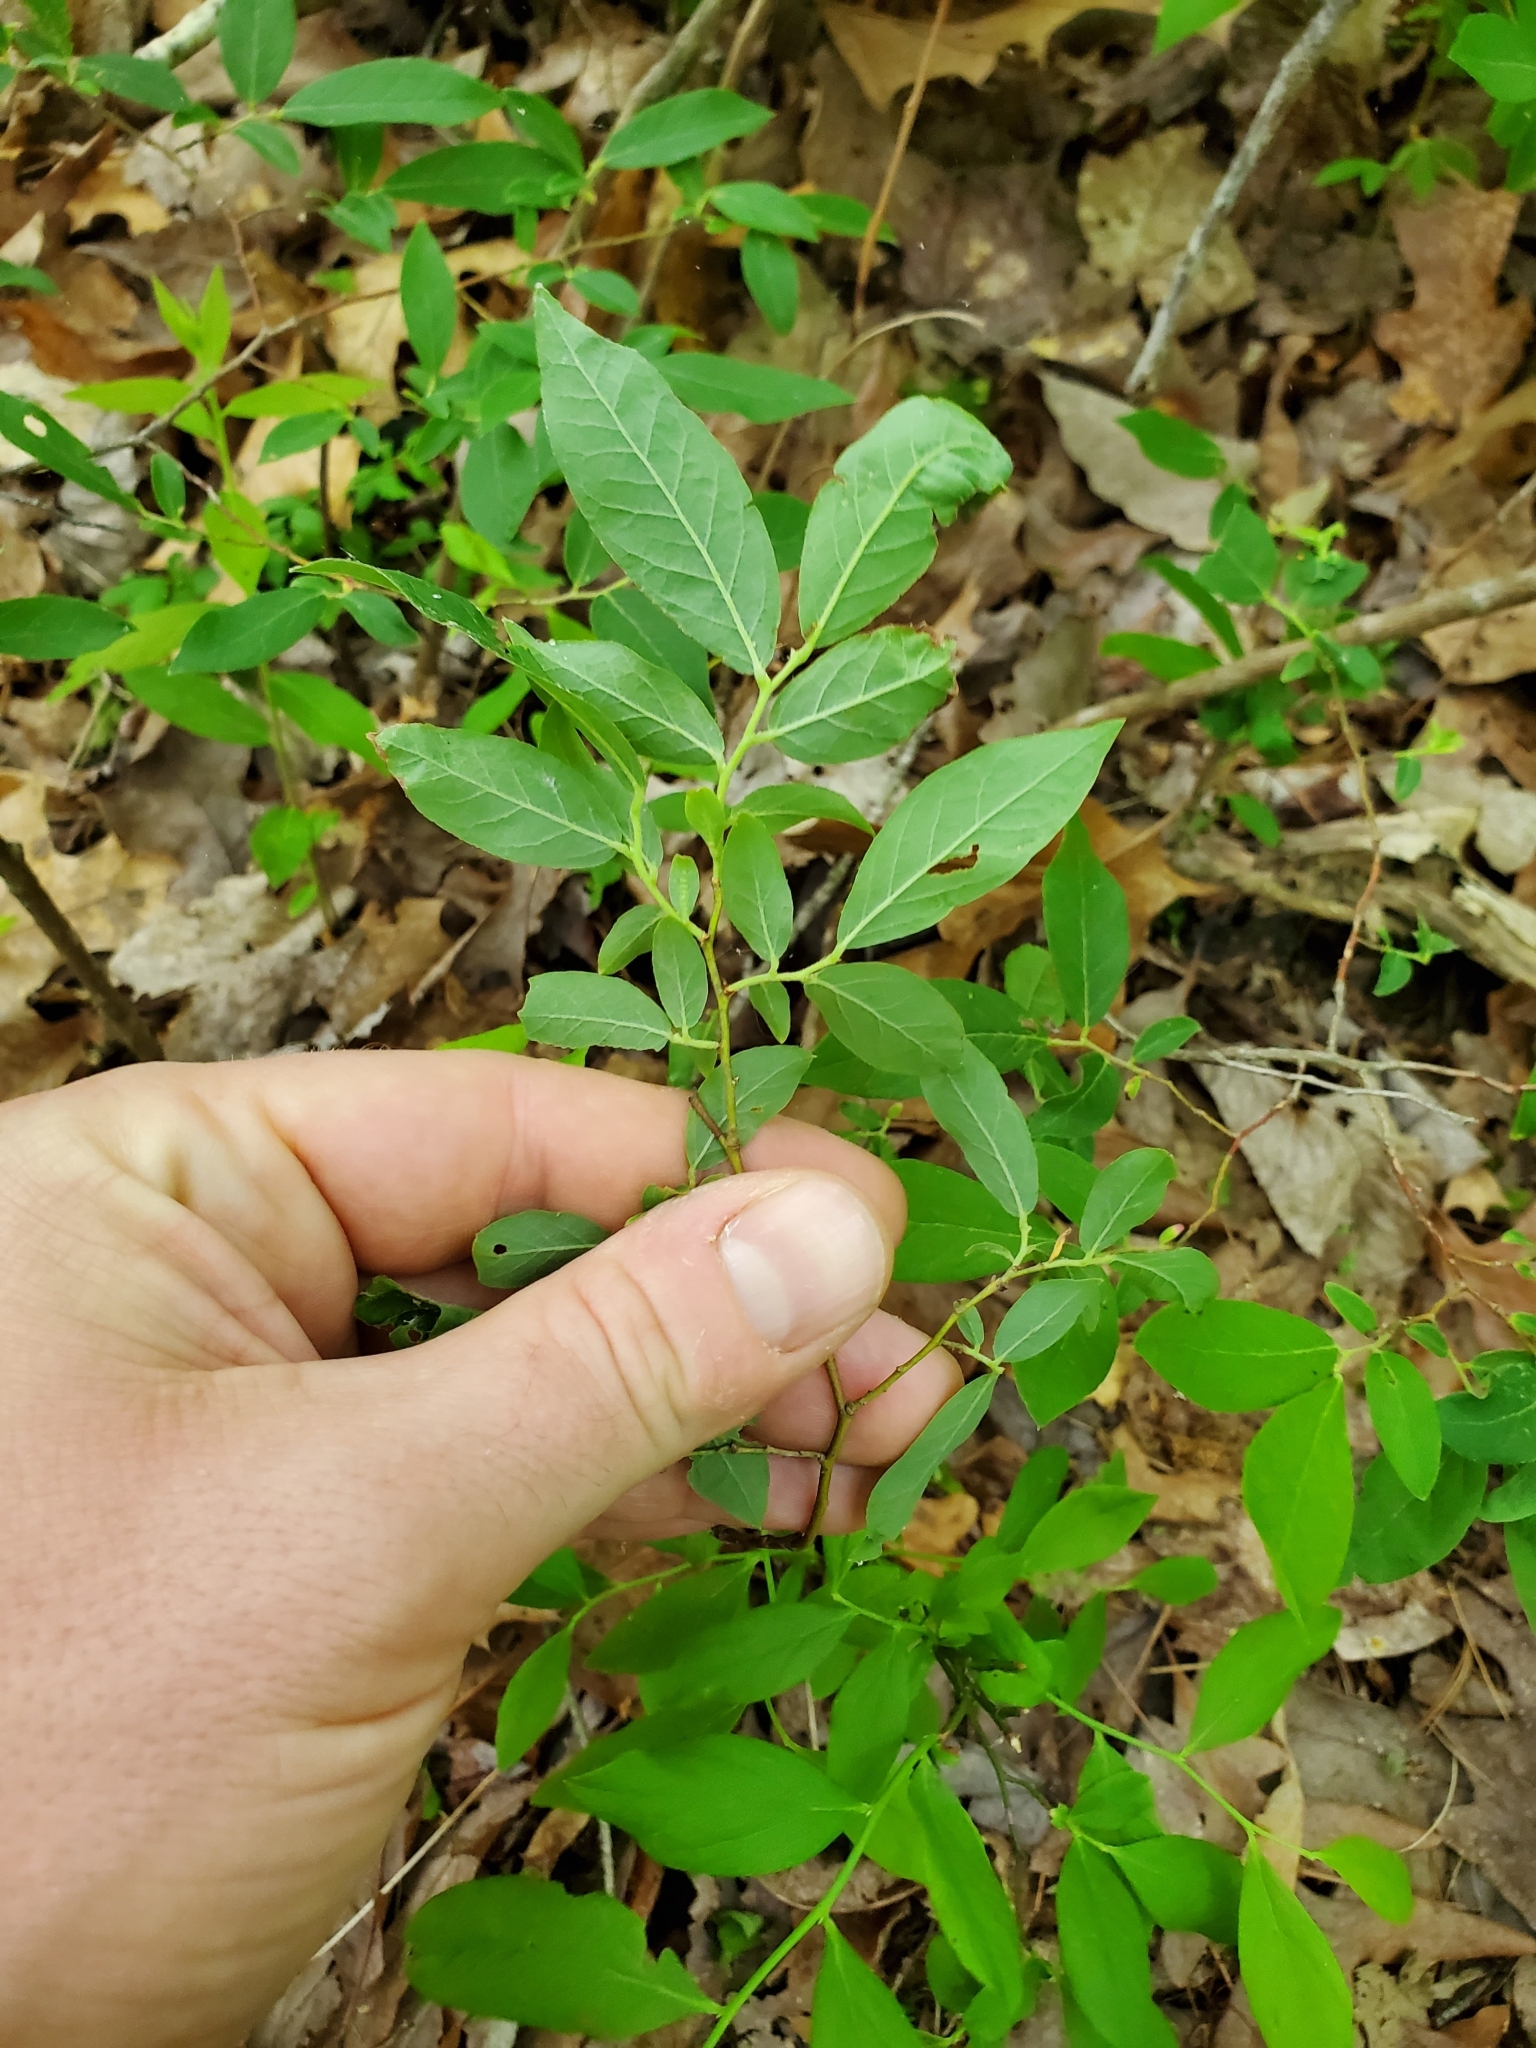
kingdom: Plantae
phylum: Tracheophyta
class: Magnoliopsida
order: Ericales
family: Ericaceae
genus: Vaccinium
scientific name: Vaccinium stamineum
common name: Deerberry
